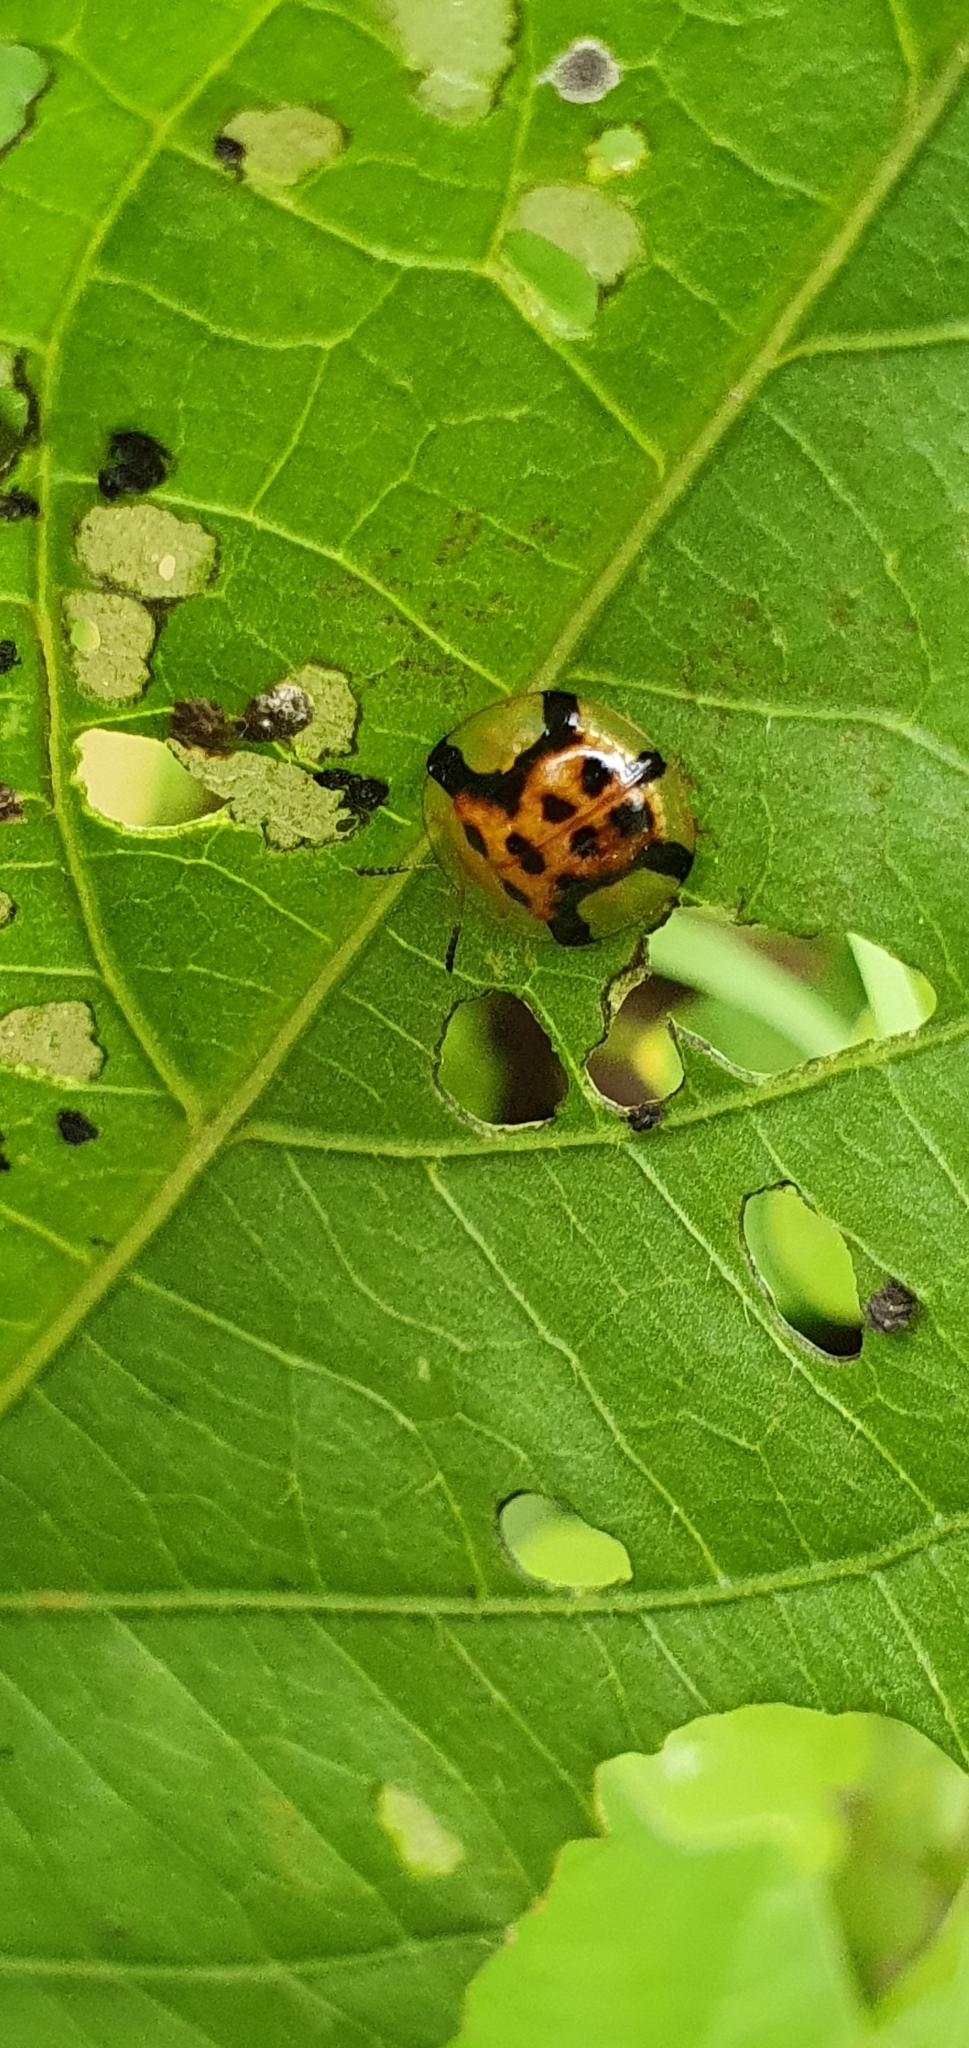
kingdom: Animalia
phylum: Arthropoda
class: Insecta
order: Coleoptera
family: Chrysomelidae
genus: Aspidimorpha
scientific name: Aspidimorpha westwoodii
